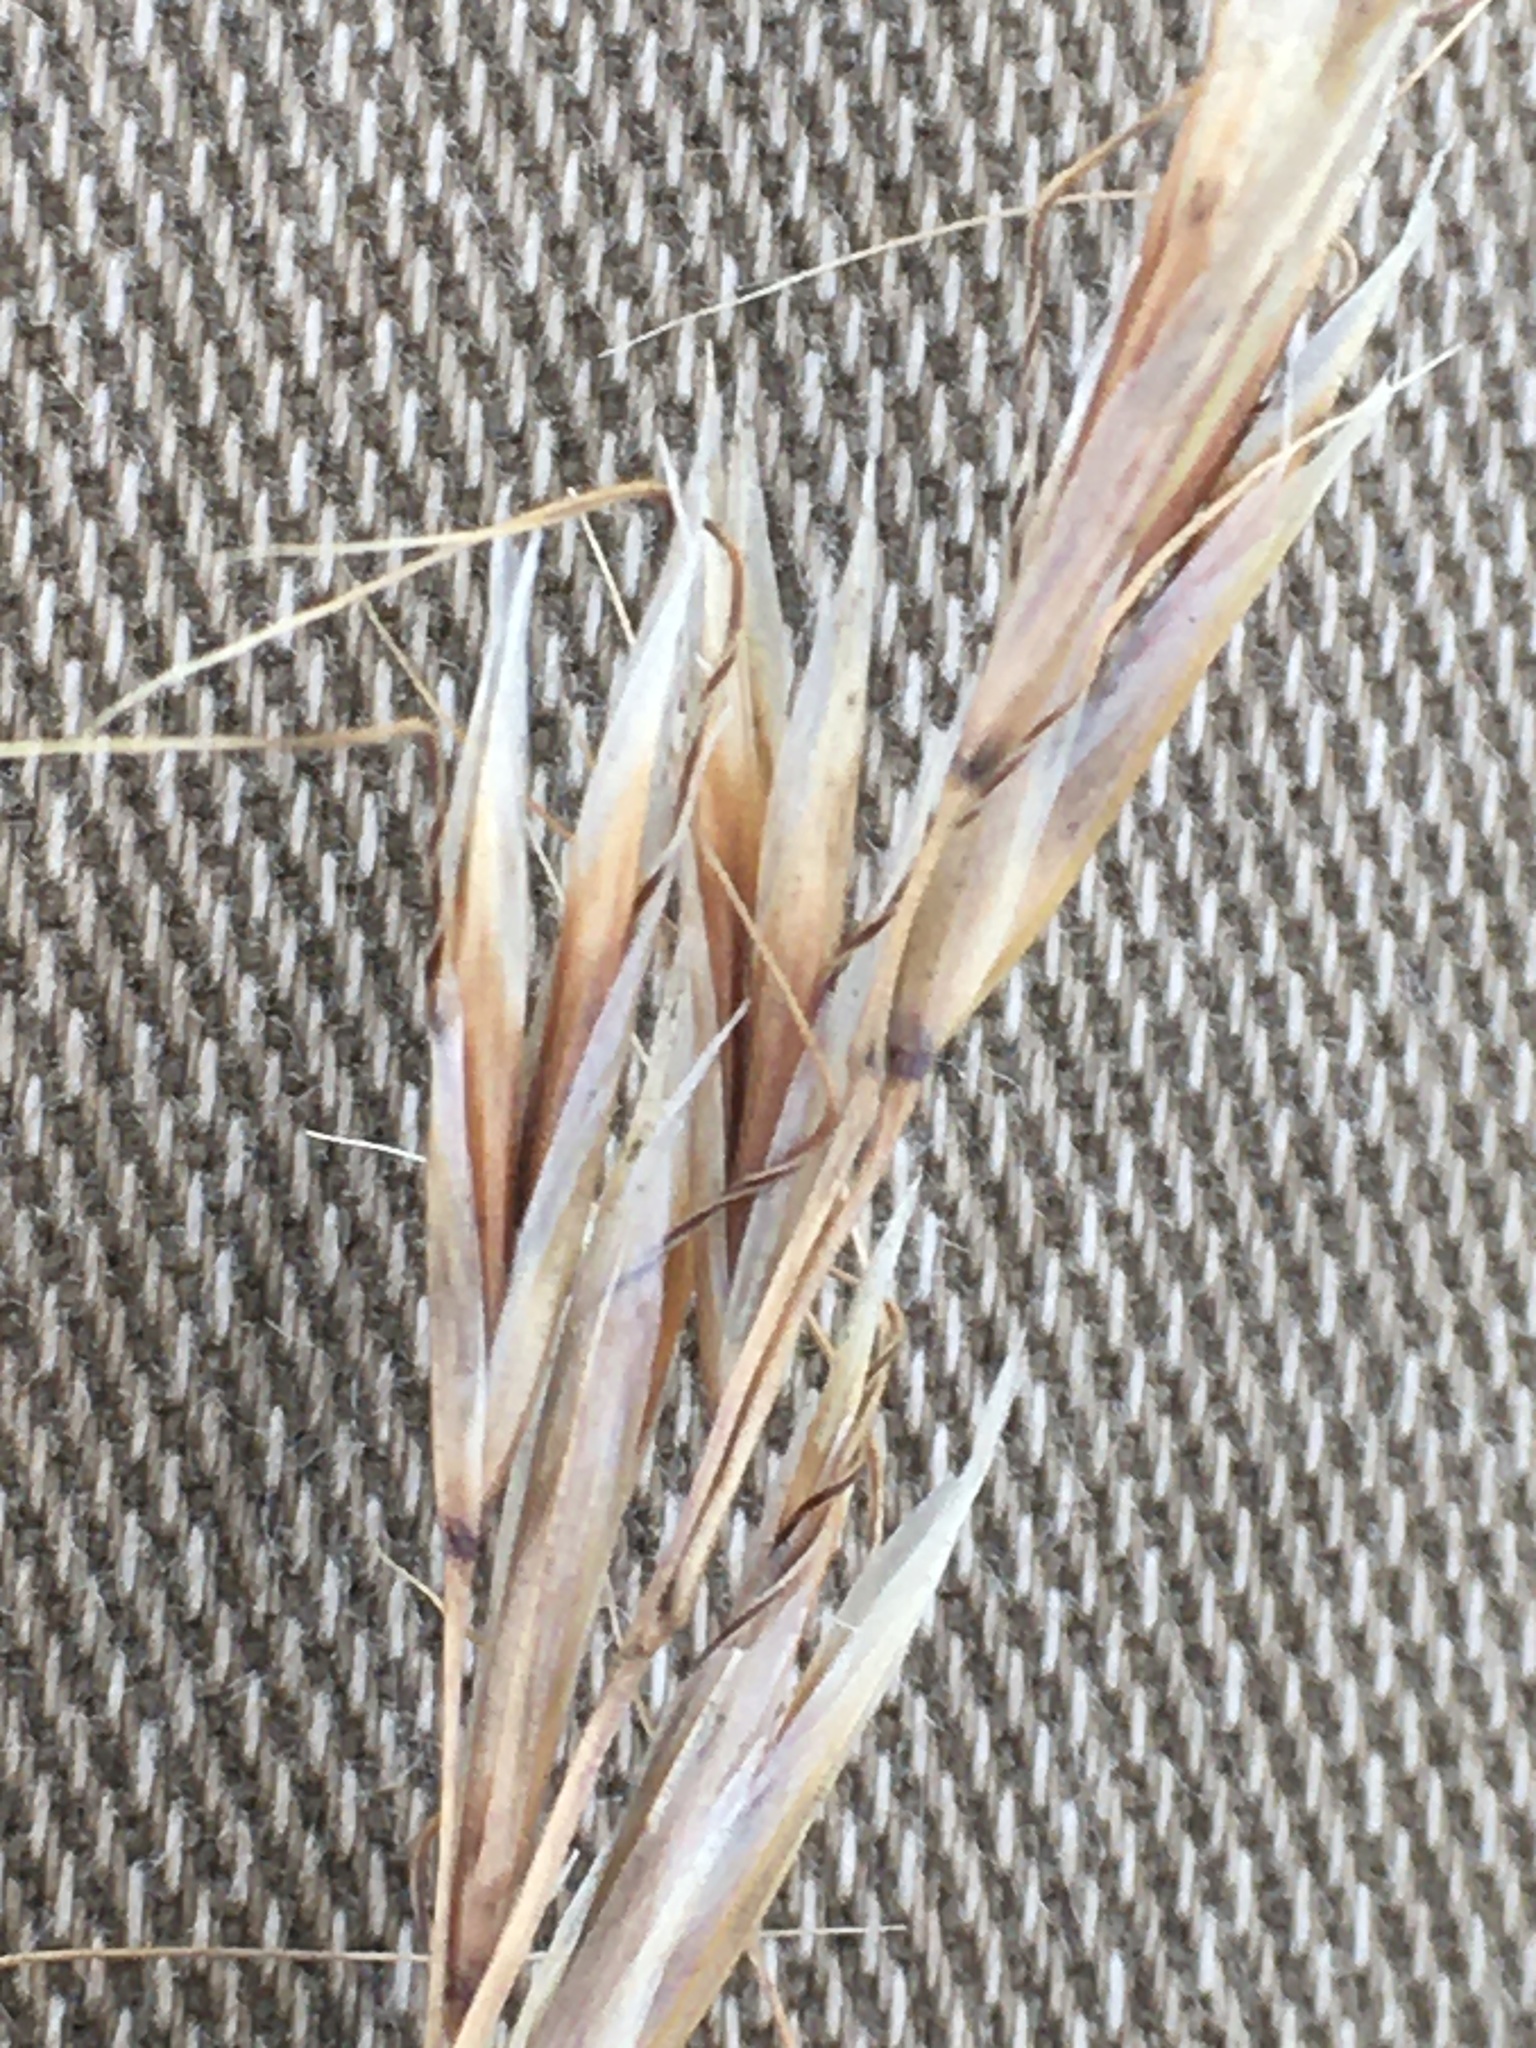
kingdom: Plantae
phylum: Tracheophyta
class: Liliopsida
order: Poales
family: Poaceae
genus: Helictochloa
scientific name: Helictochloa hookeri
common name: Hooker's alpine oatgrass
